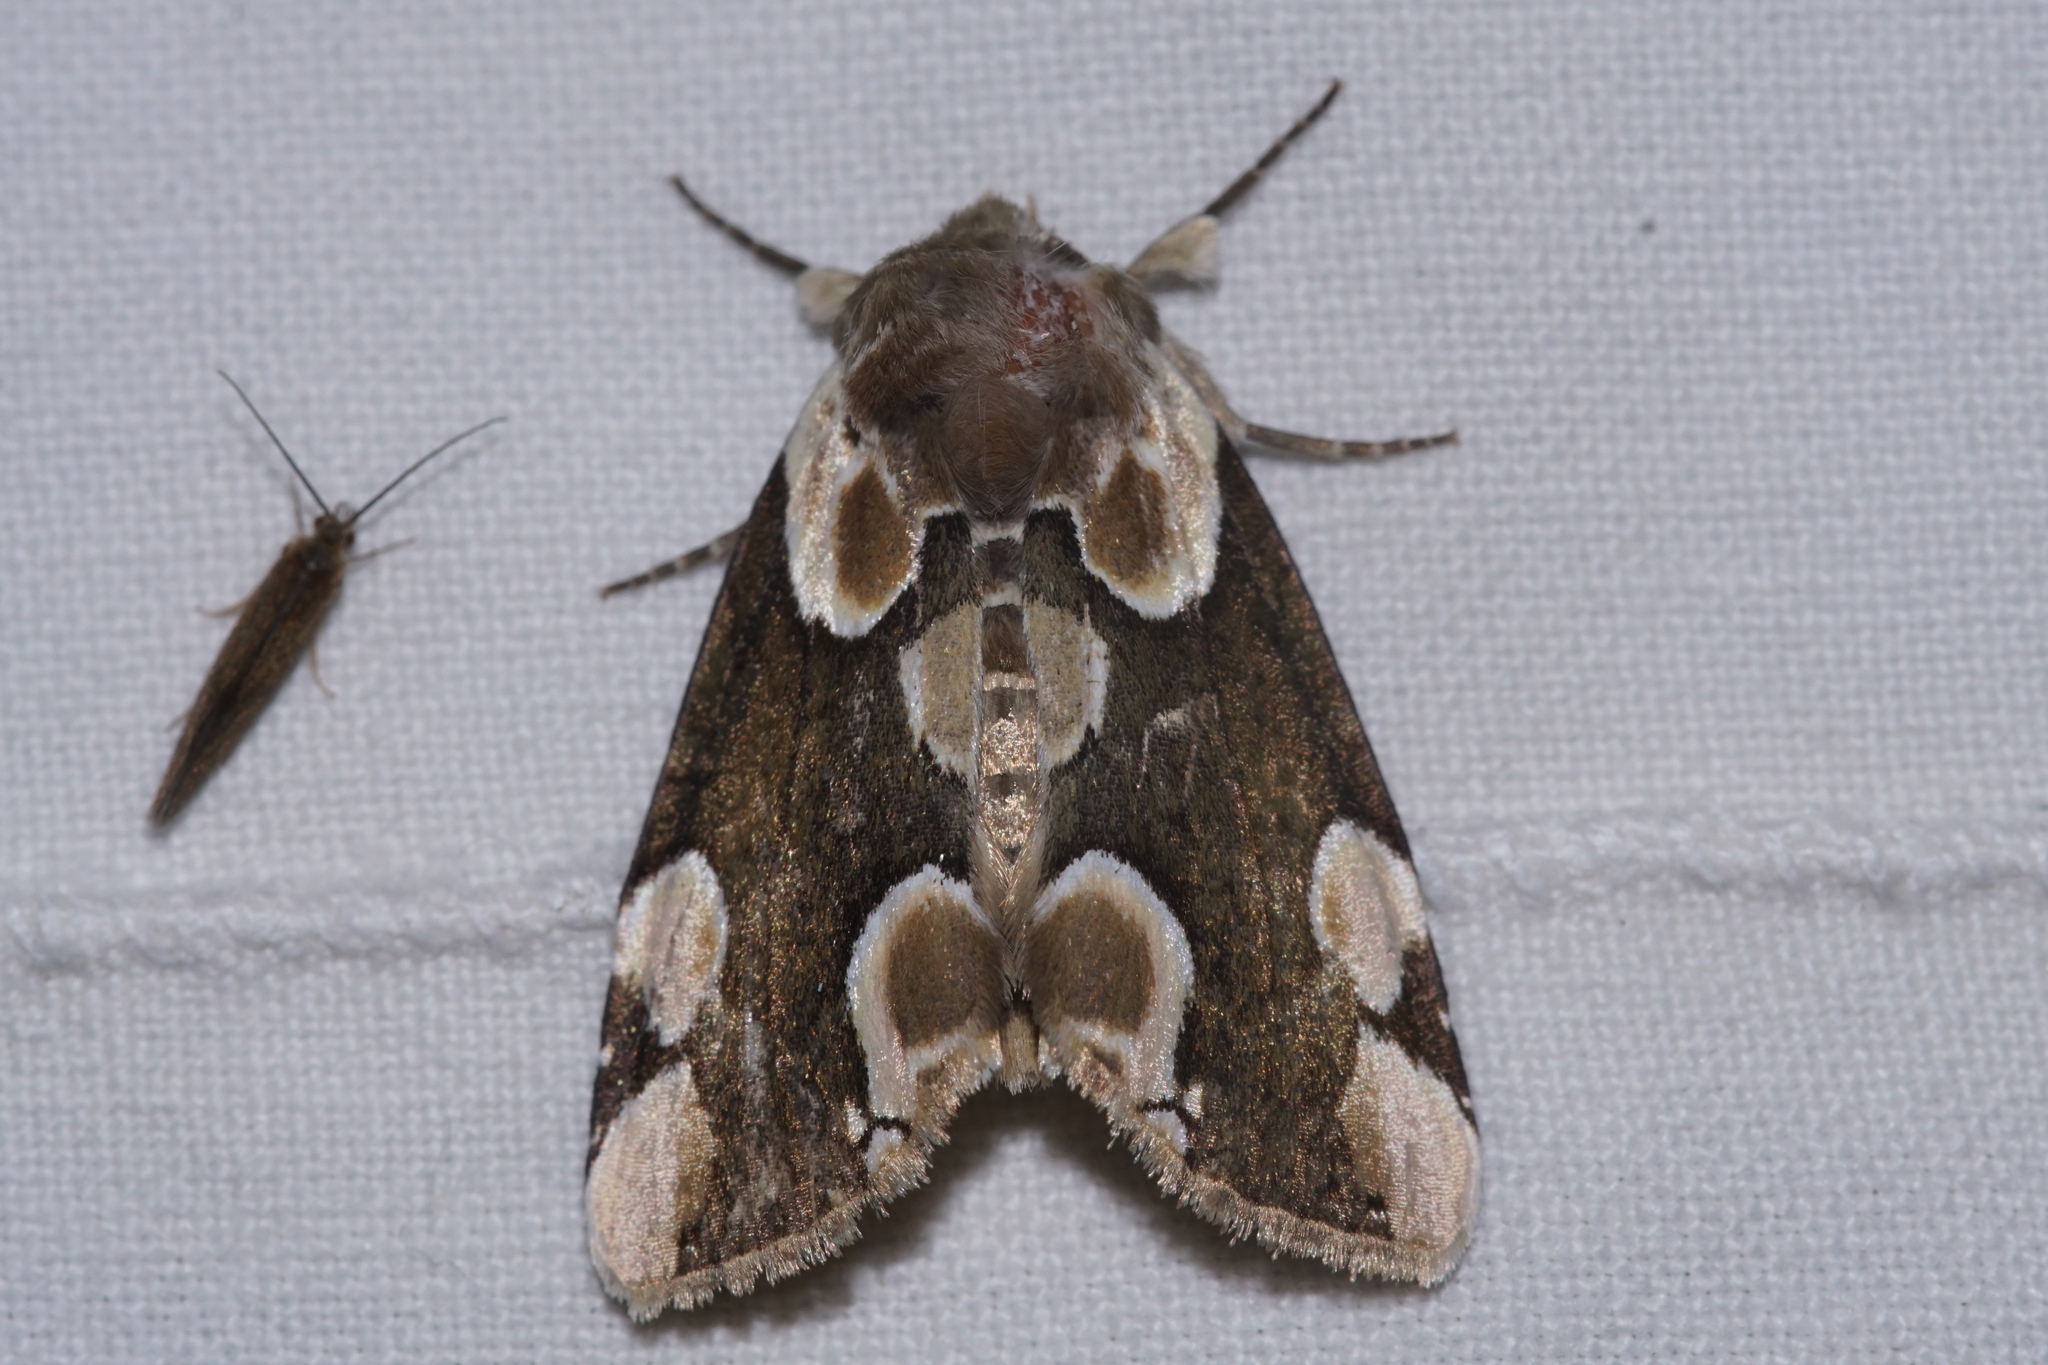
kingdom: Animalia
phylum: Arthropoda
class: Insecta
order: Lepidoptera
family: Drepanidae
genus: Thyatira
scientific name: Thyatira batis
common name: Peach blossom
